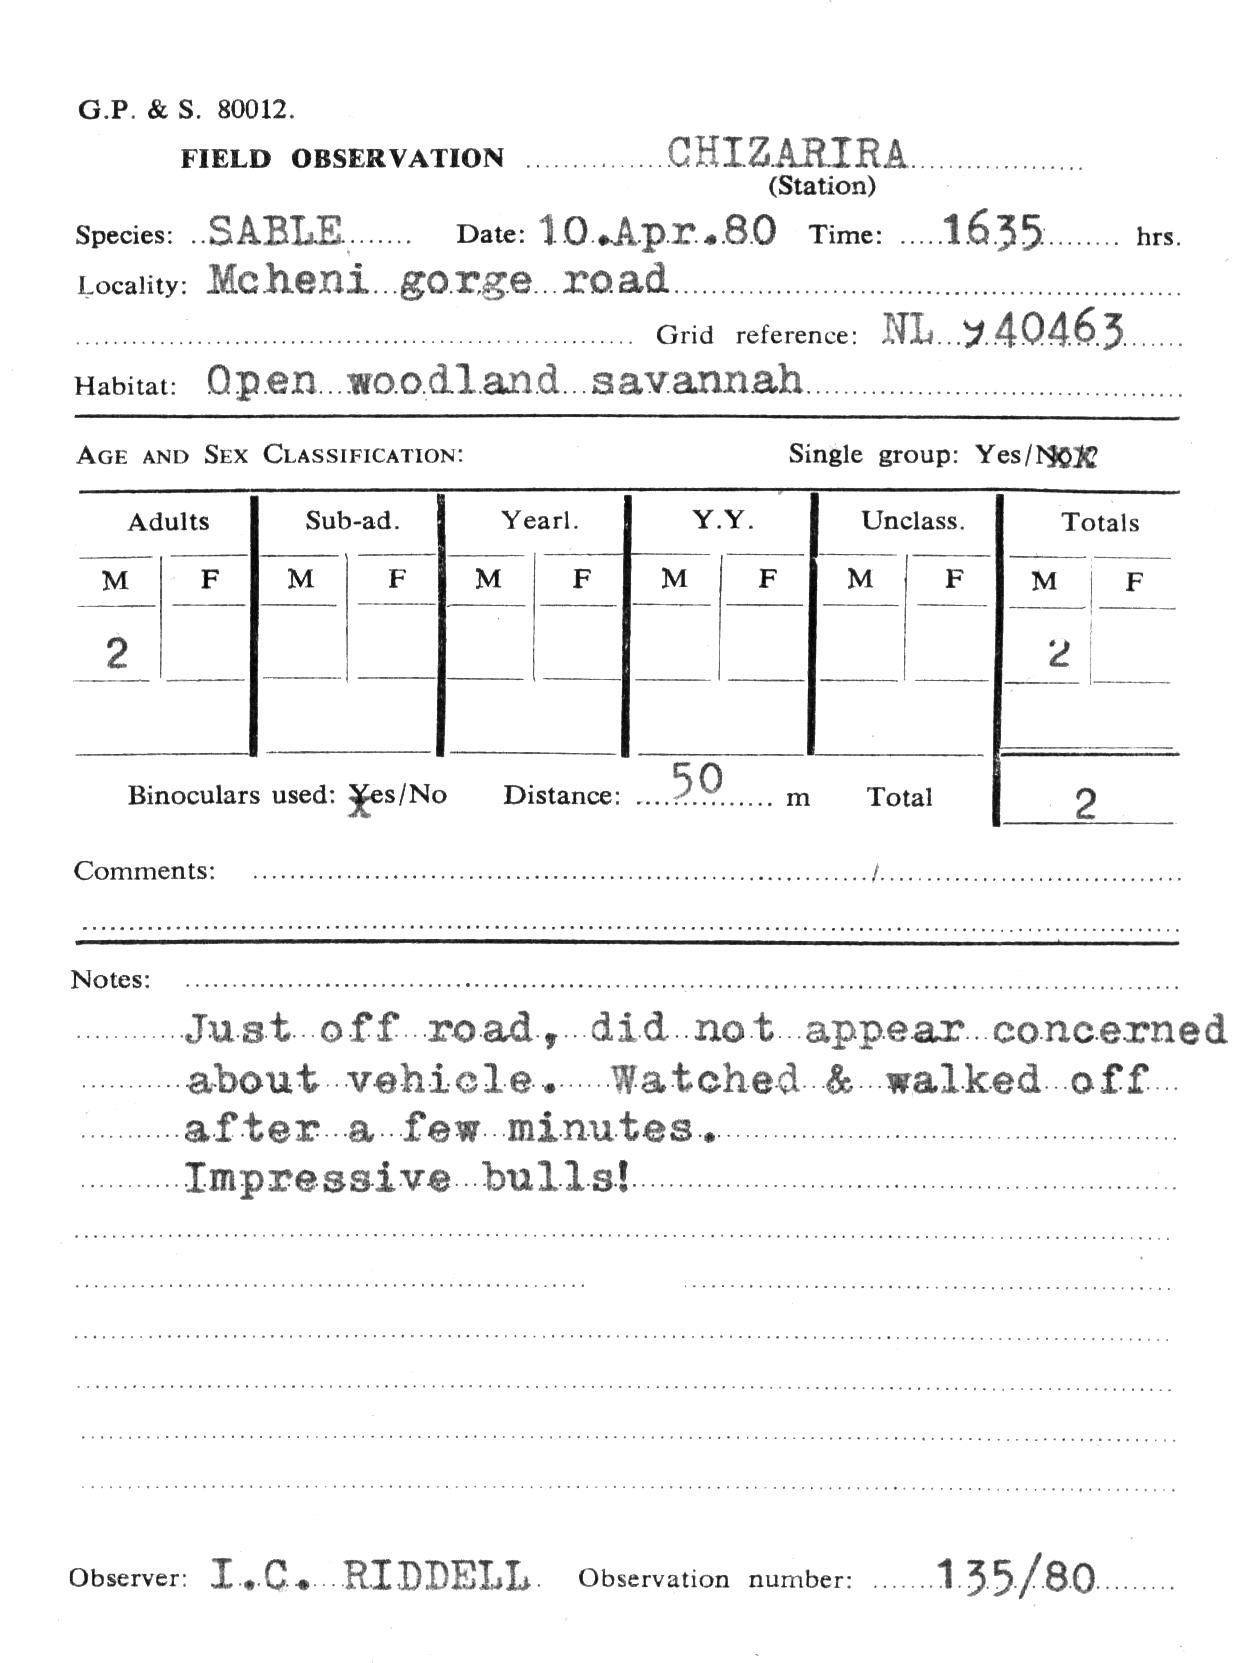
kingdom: Animalia
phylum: Chordata
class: Mammalia
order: Artiodactyla
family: Bovidae
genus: Hippotragus
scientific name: Hippotragus niger
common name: Sable antelope
